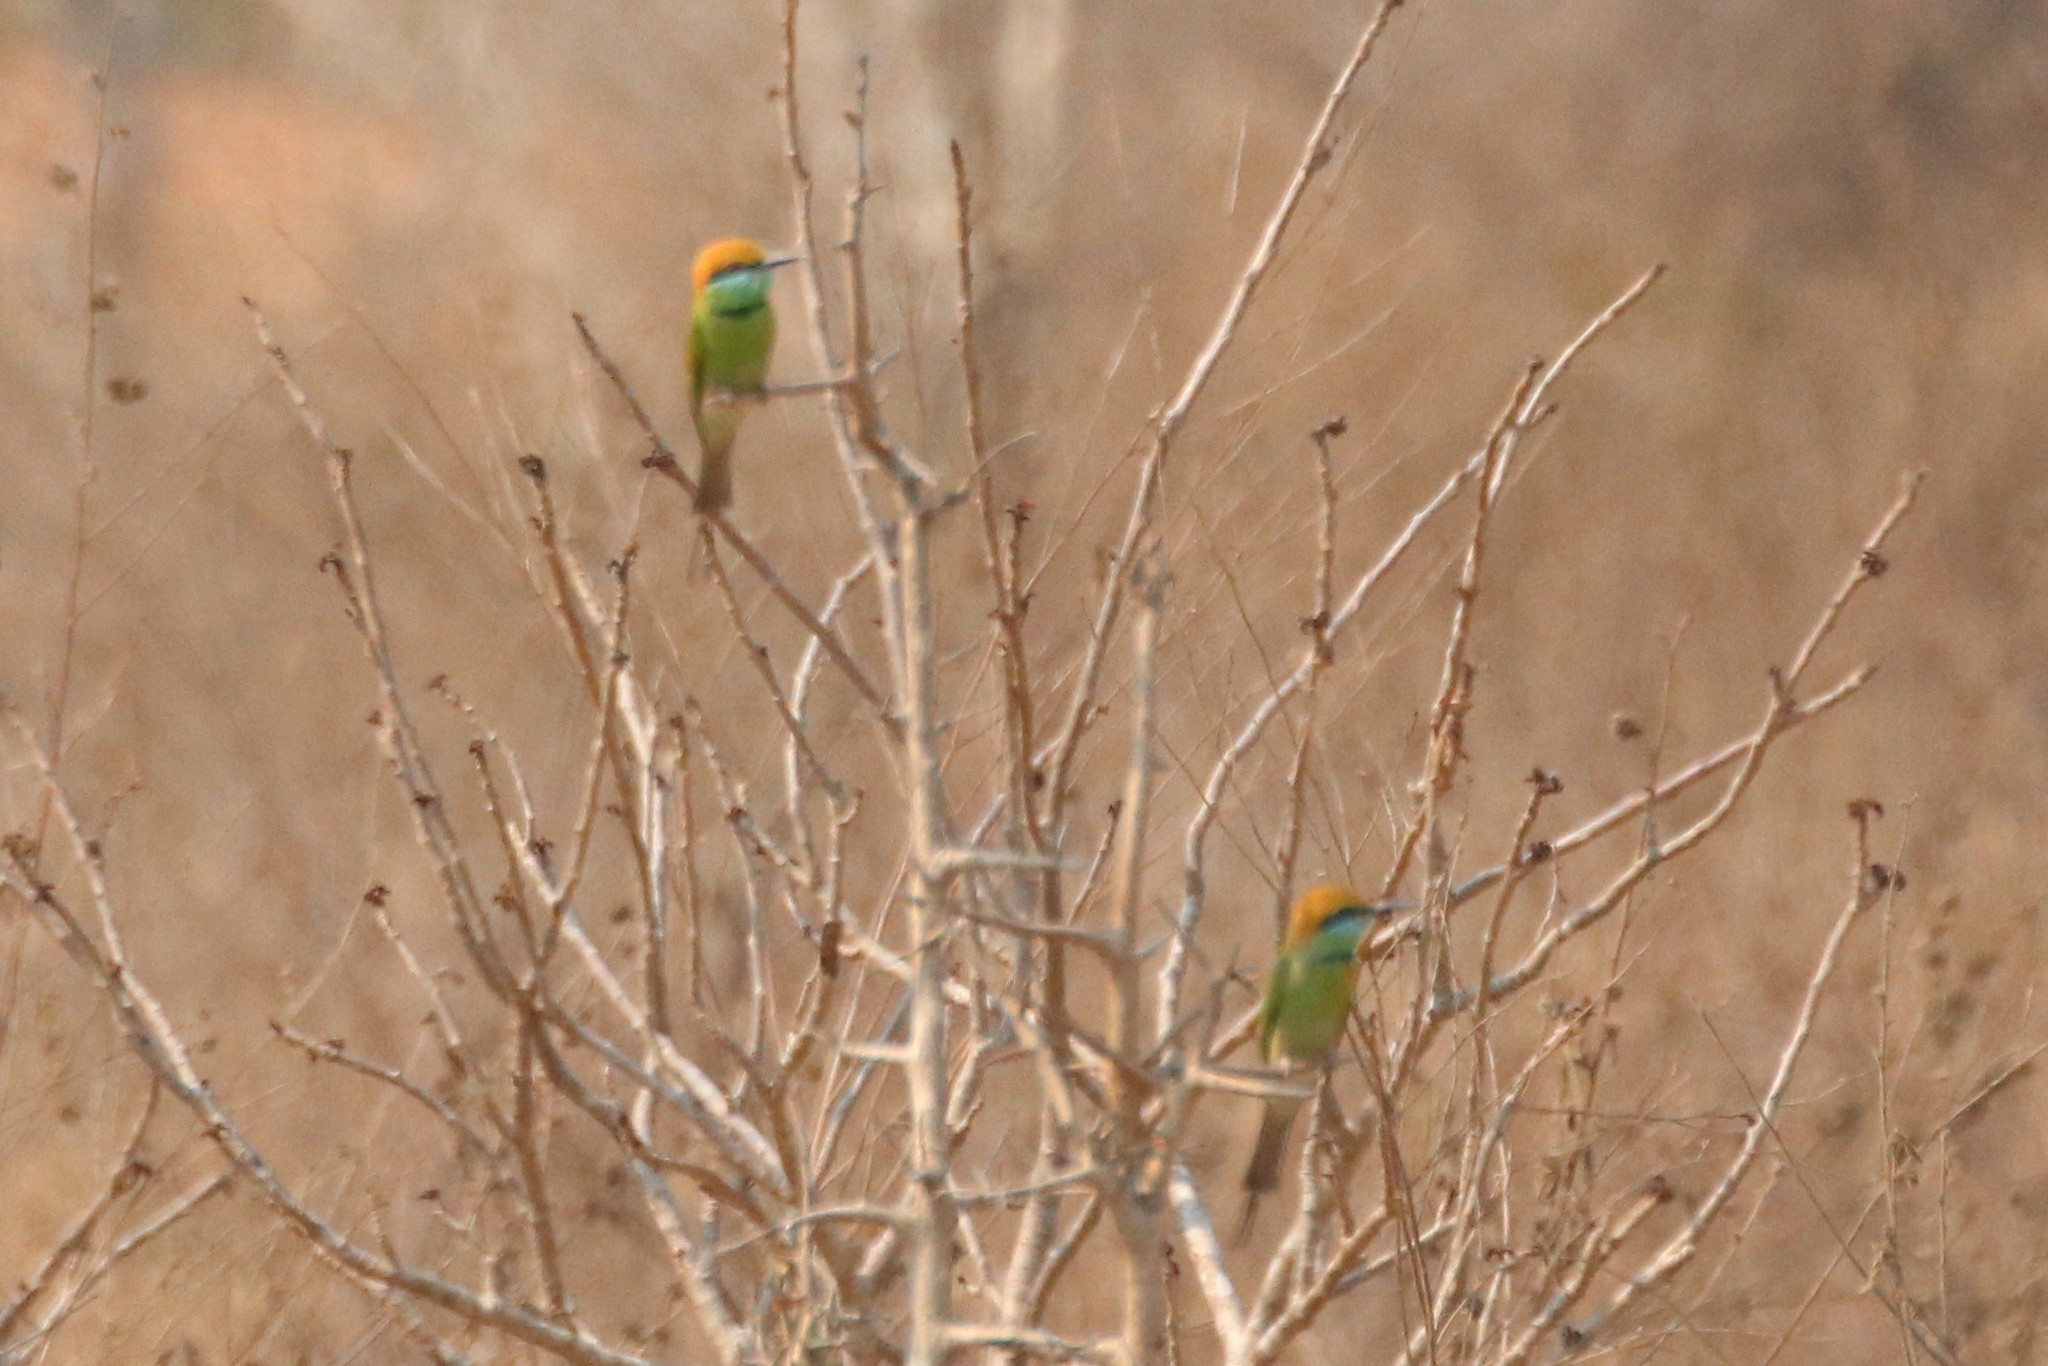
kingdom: Animalia
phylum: Chordata
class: Aves
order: Coraciiformes
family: Meropidae
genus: Merops
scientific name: Merops orientalis
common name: Green bee-eater
